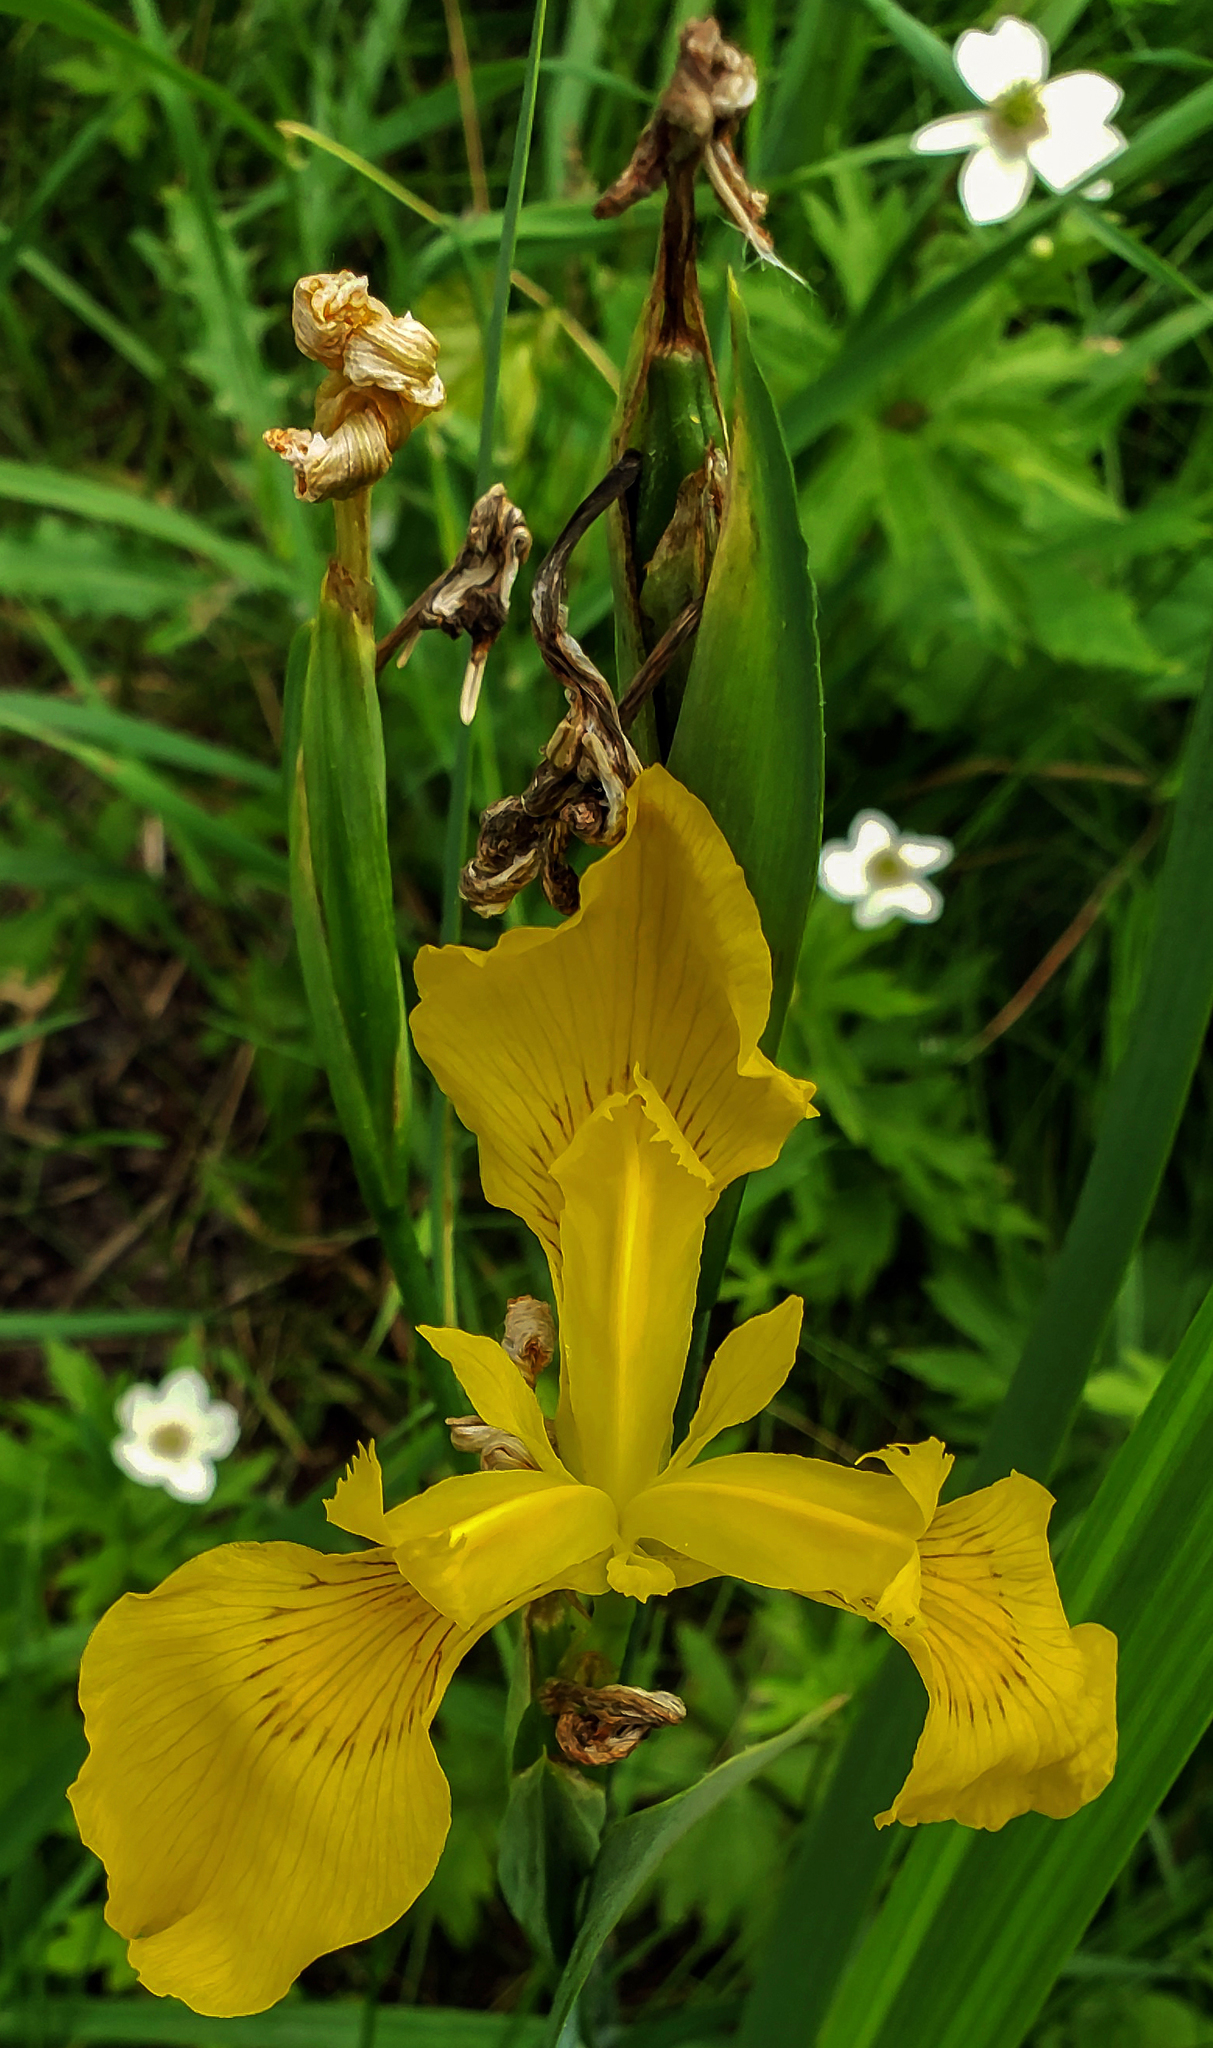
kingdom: Plantae
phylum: Tracheophyta
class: Liliopsida
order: Asparagales
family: Iridaceae
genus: Iris
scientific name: Iris pseudacorus
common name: Yellow flag
